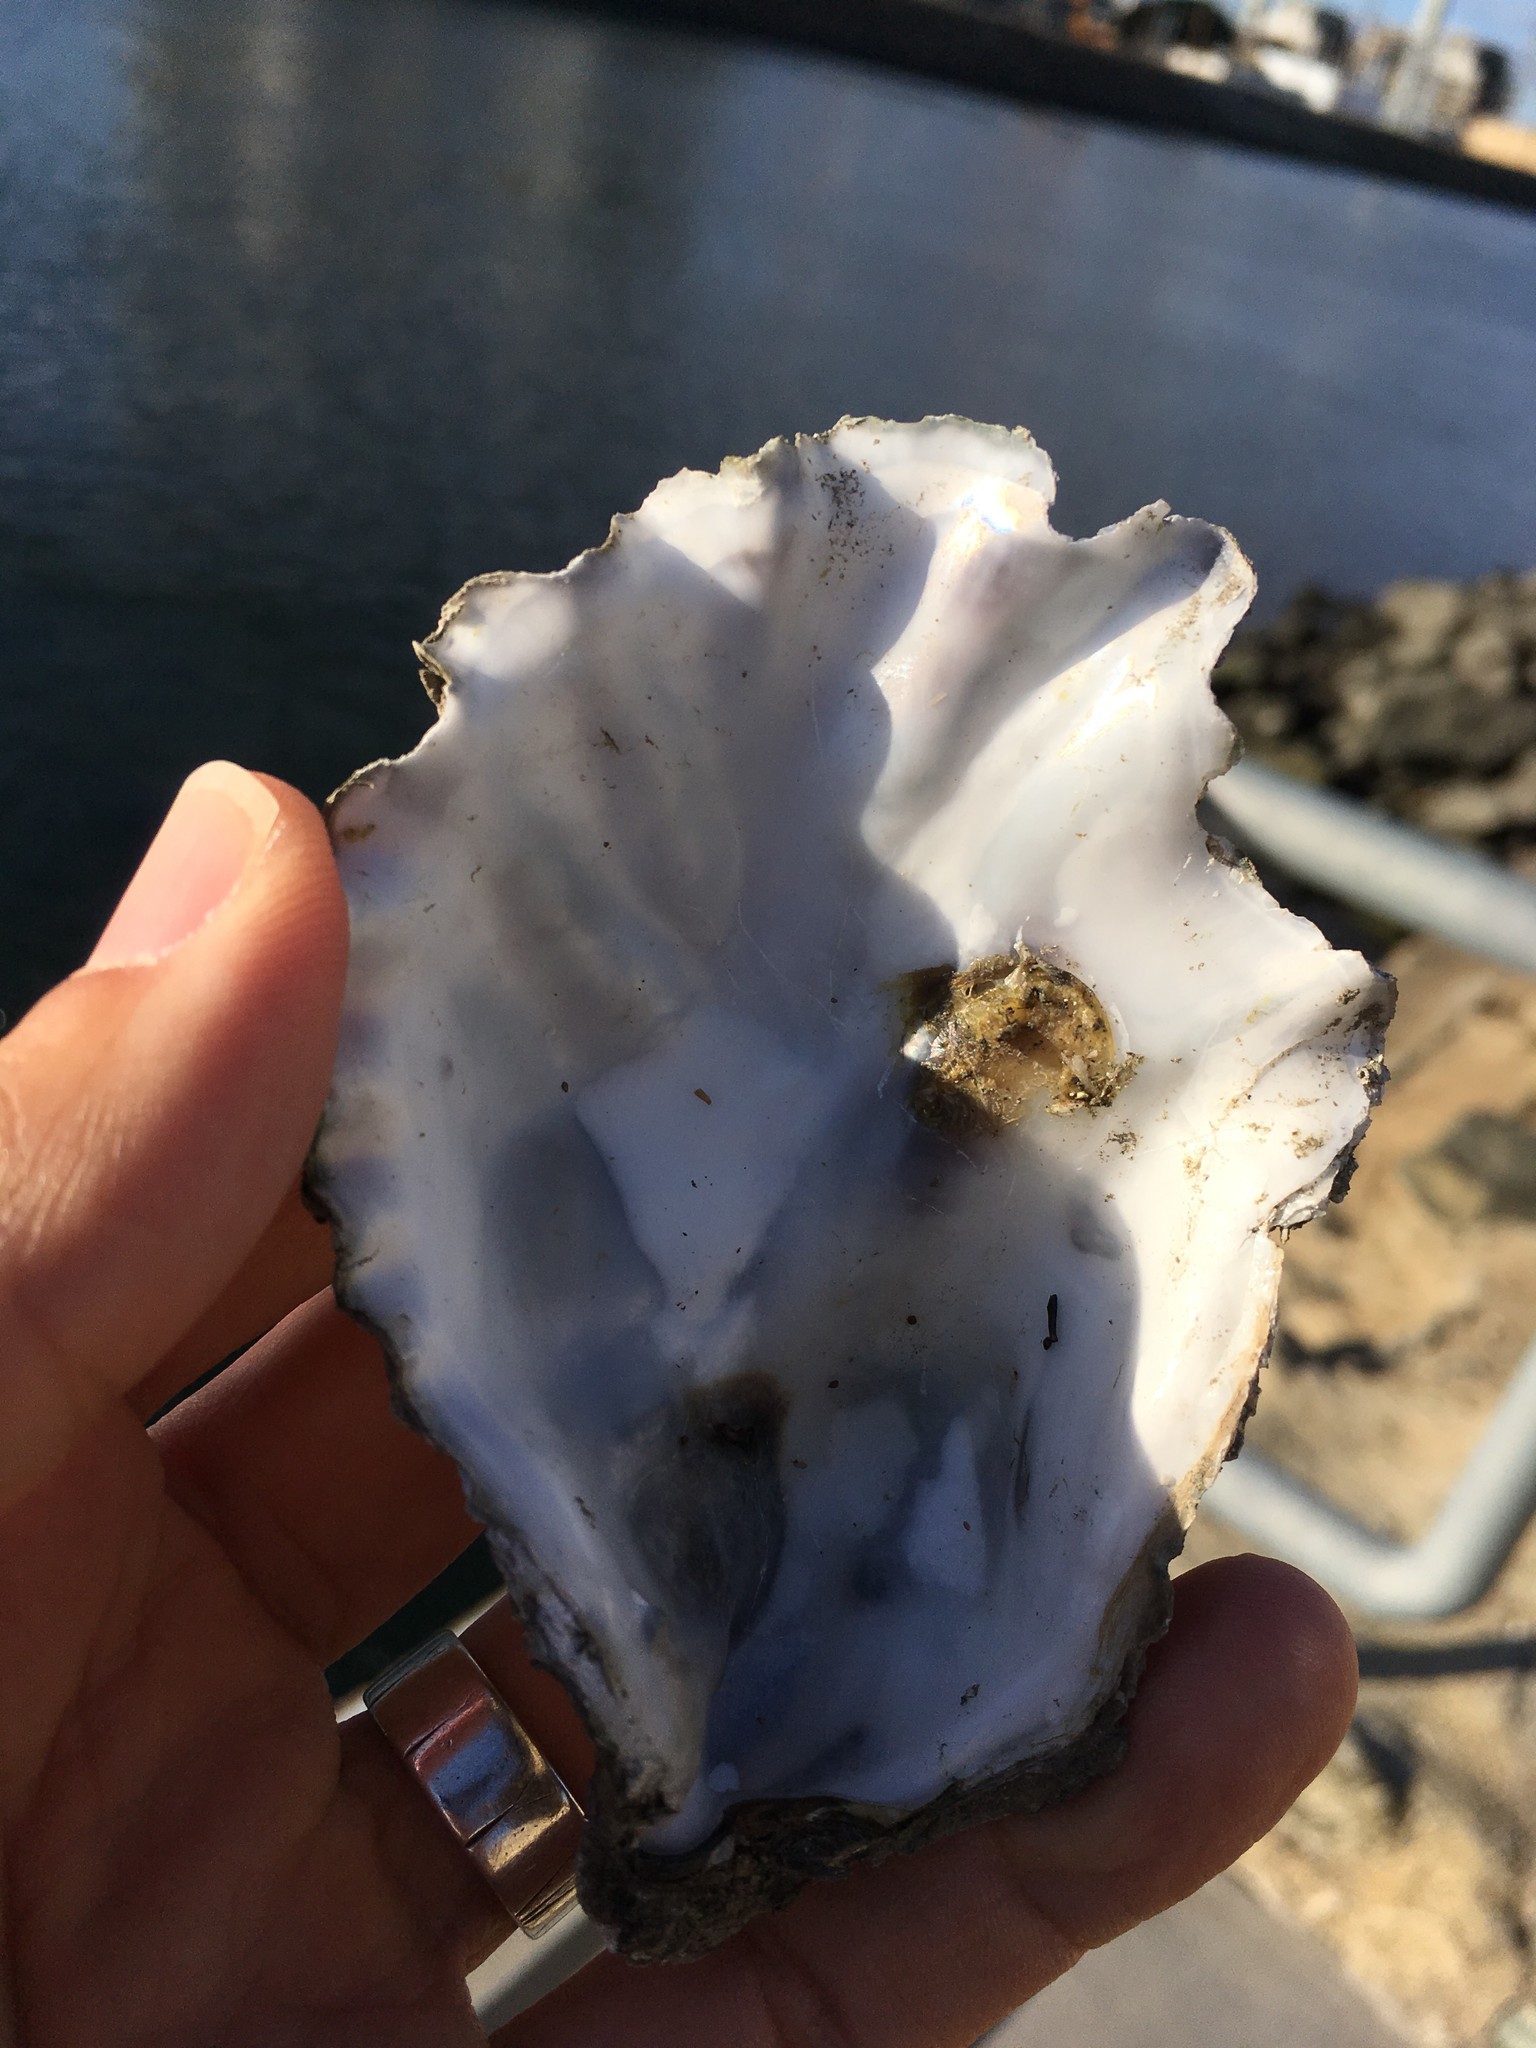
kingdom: Animalia
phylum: Mollusca
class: Bivalvia
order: Ostreida
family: Ostreidae
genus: Magallana
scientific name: Magallana gigas
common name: Pacific oyster
